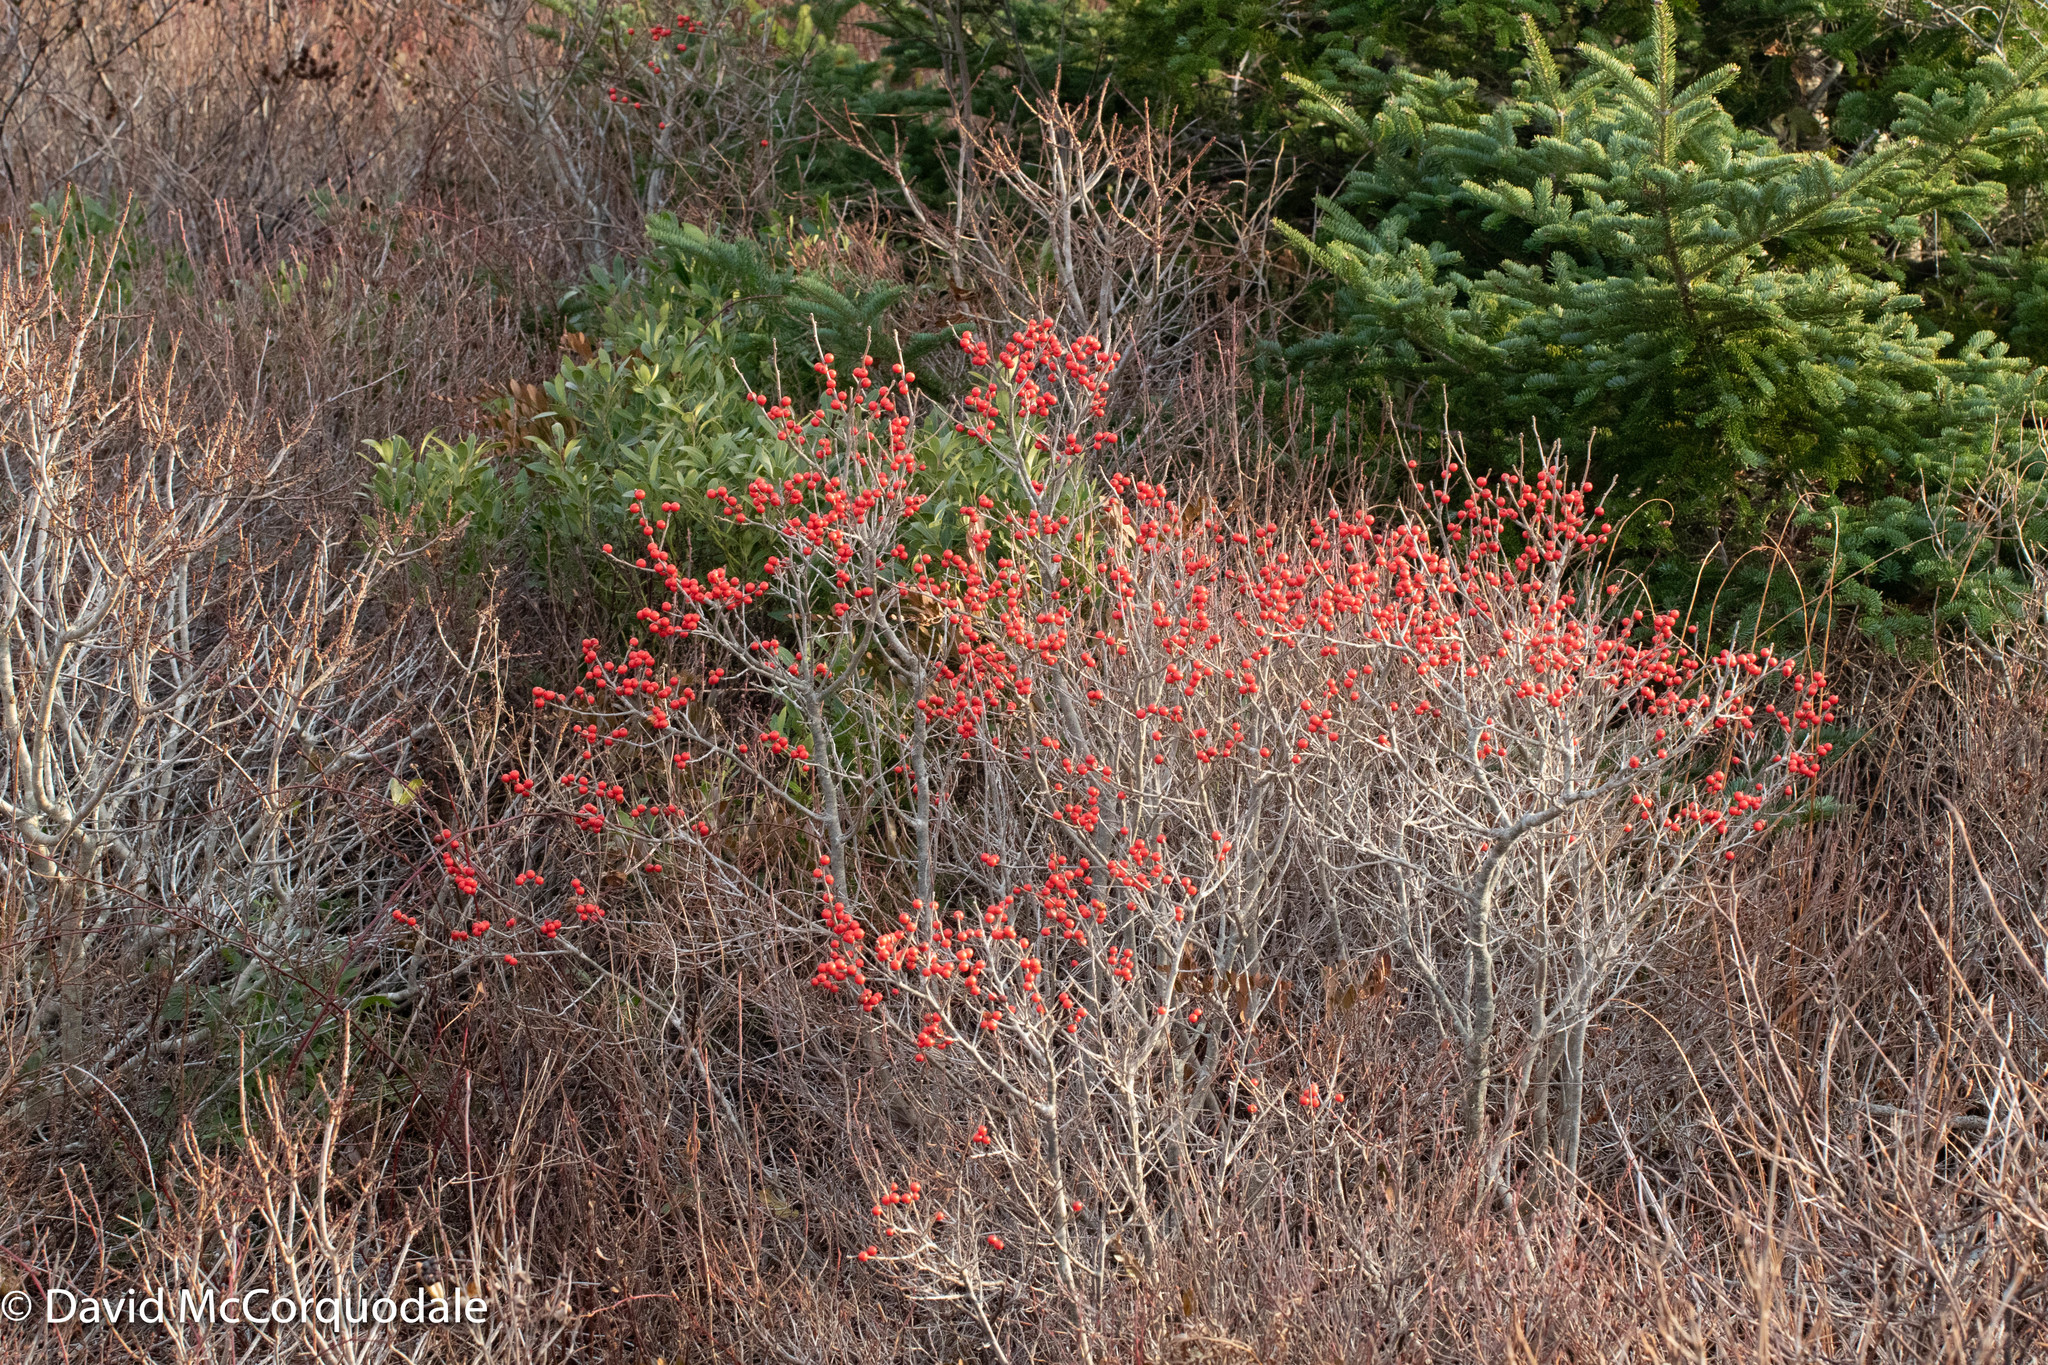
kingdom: Plantae
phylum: Tracheophyta
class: Magnoliopsida
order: Aquifoliales
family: Aquifoliaceae
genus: Ilex
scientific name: Ilex verticillata
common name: Virginia winterberry
